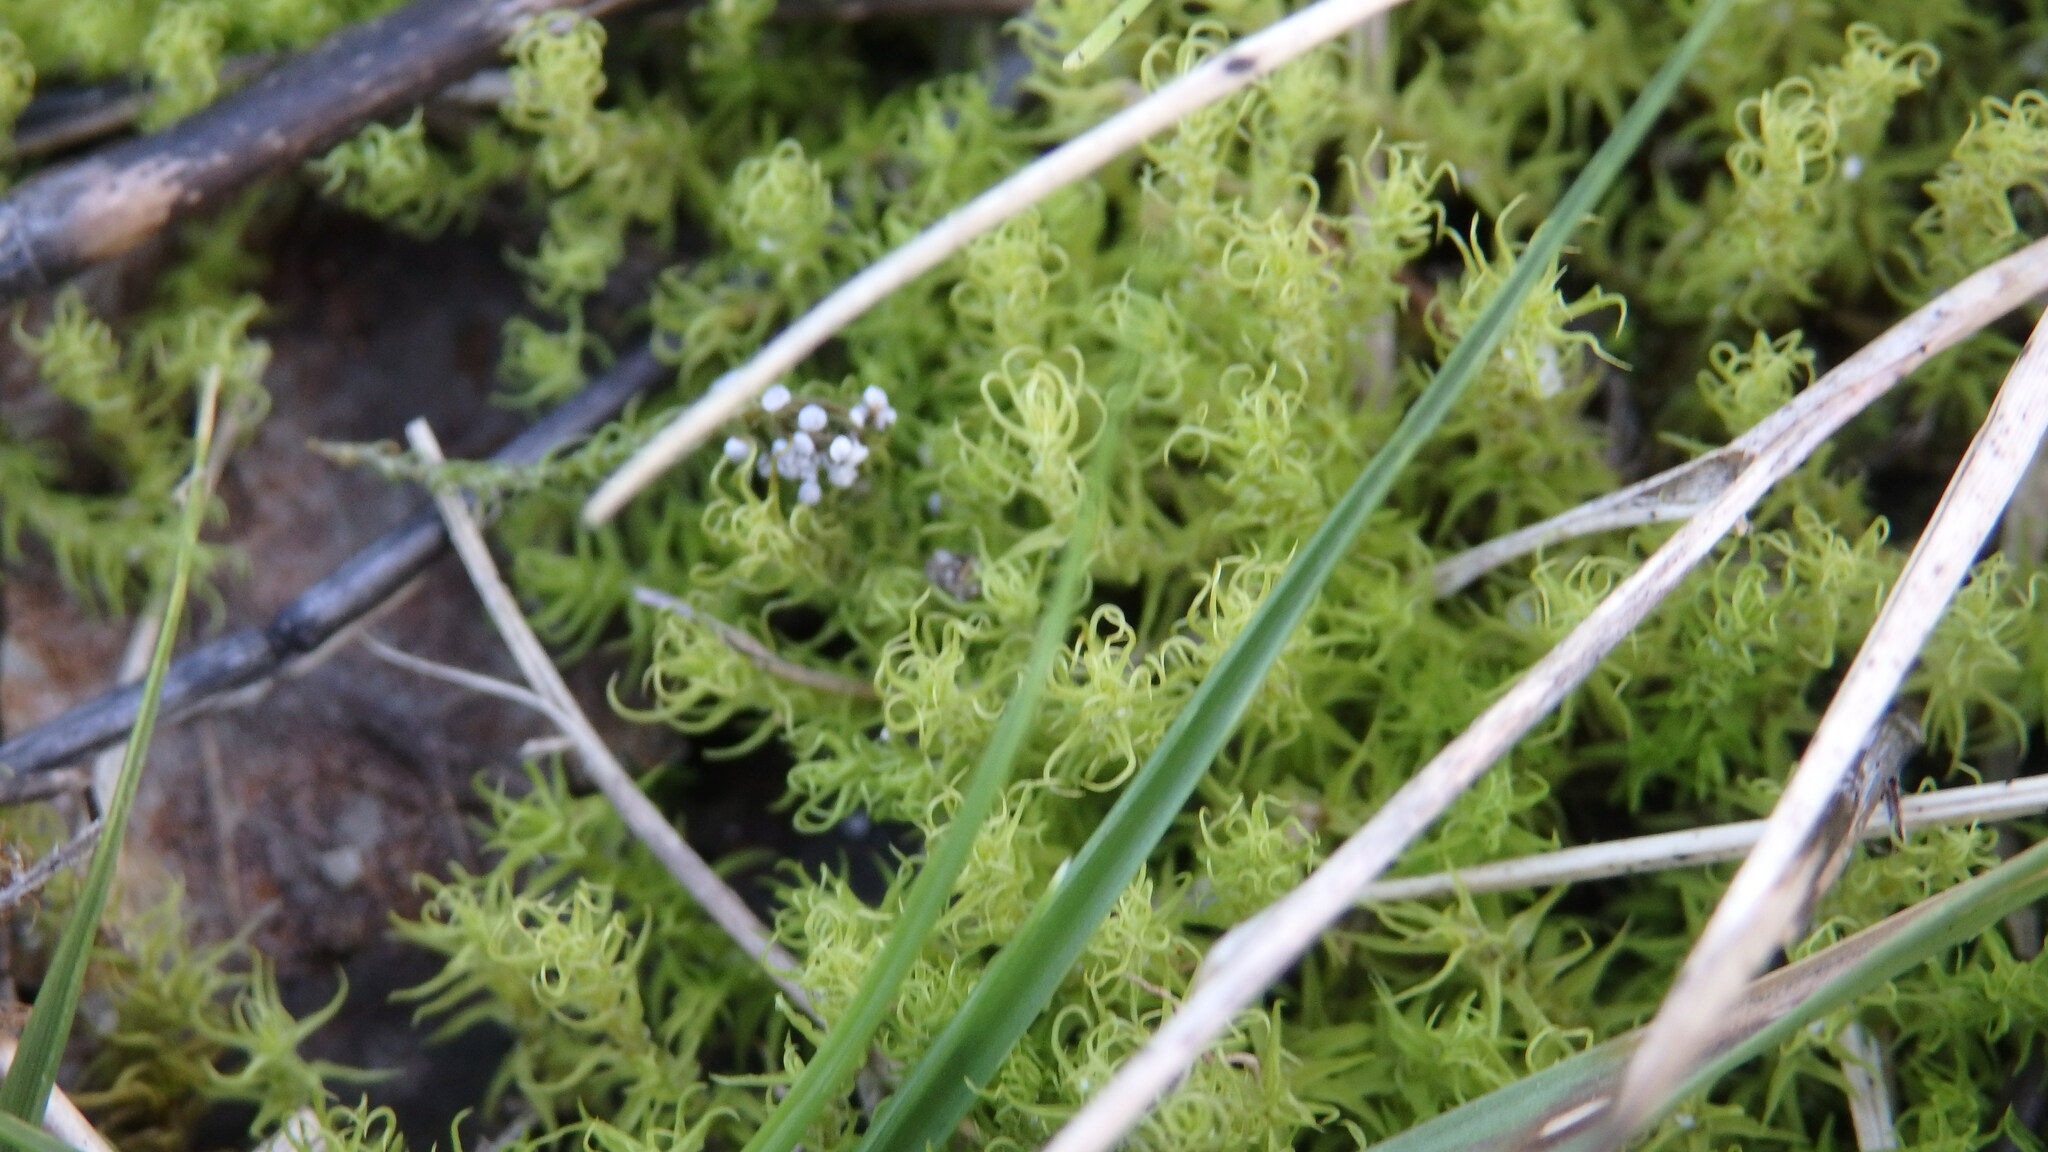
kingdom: Plantae
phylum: Bryophyta
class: Bryopsida
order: Pottiales
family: Pottiaceae
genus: Pleurochaete
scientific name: Pleurochaete squarrosa
